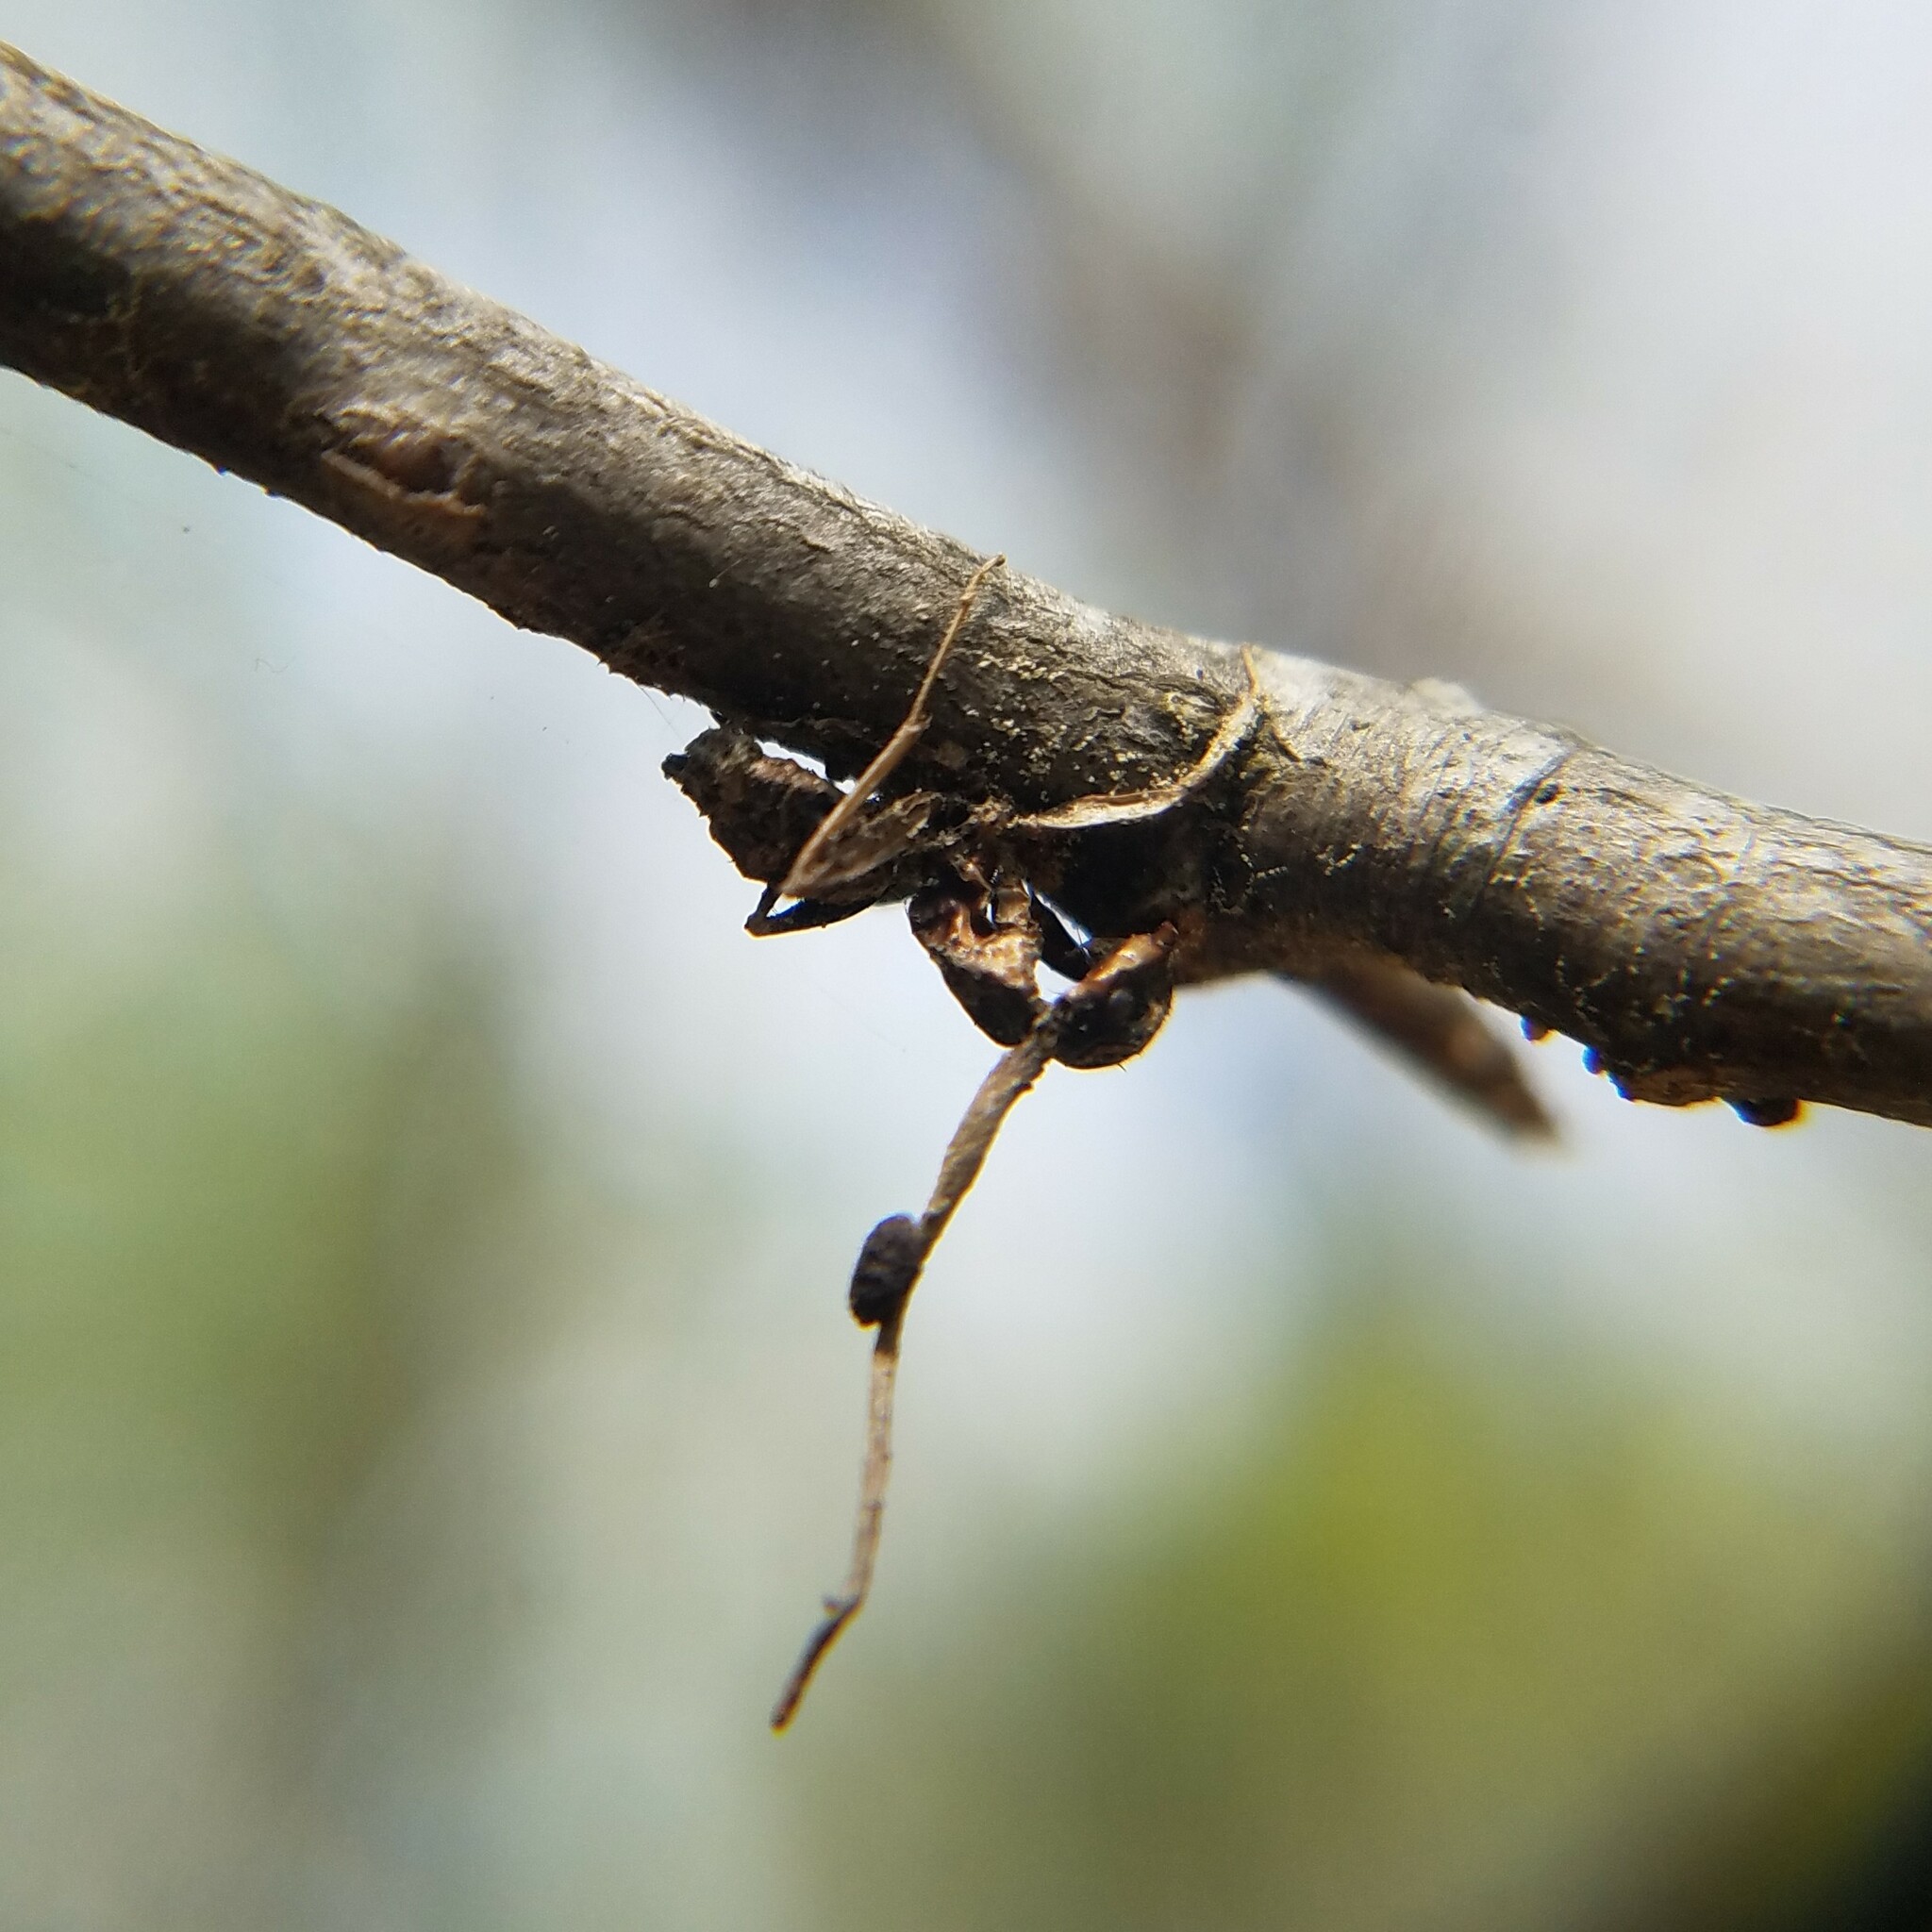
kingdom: Fungi
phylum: Ascomycota
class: Sordariomycetes
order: Hypocreales
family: Ophiocordycipitaceae
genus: Ophiocordyceps
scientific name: Ophiocordyceps kimflemingiae
